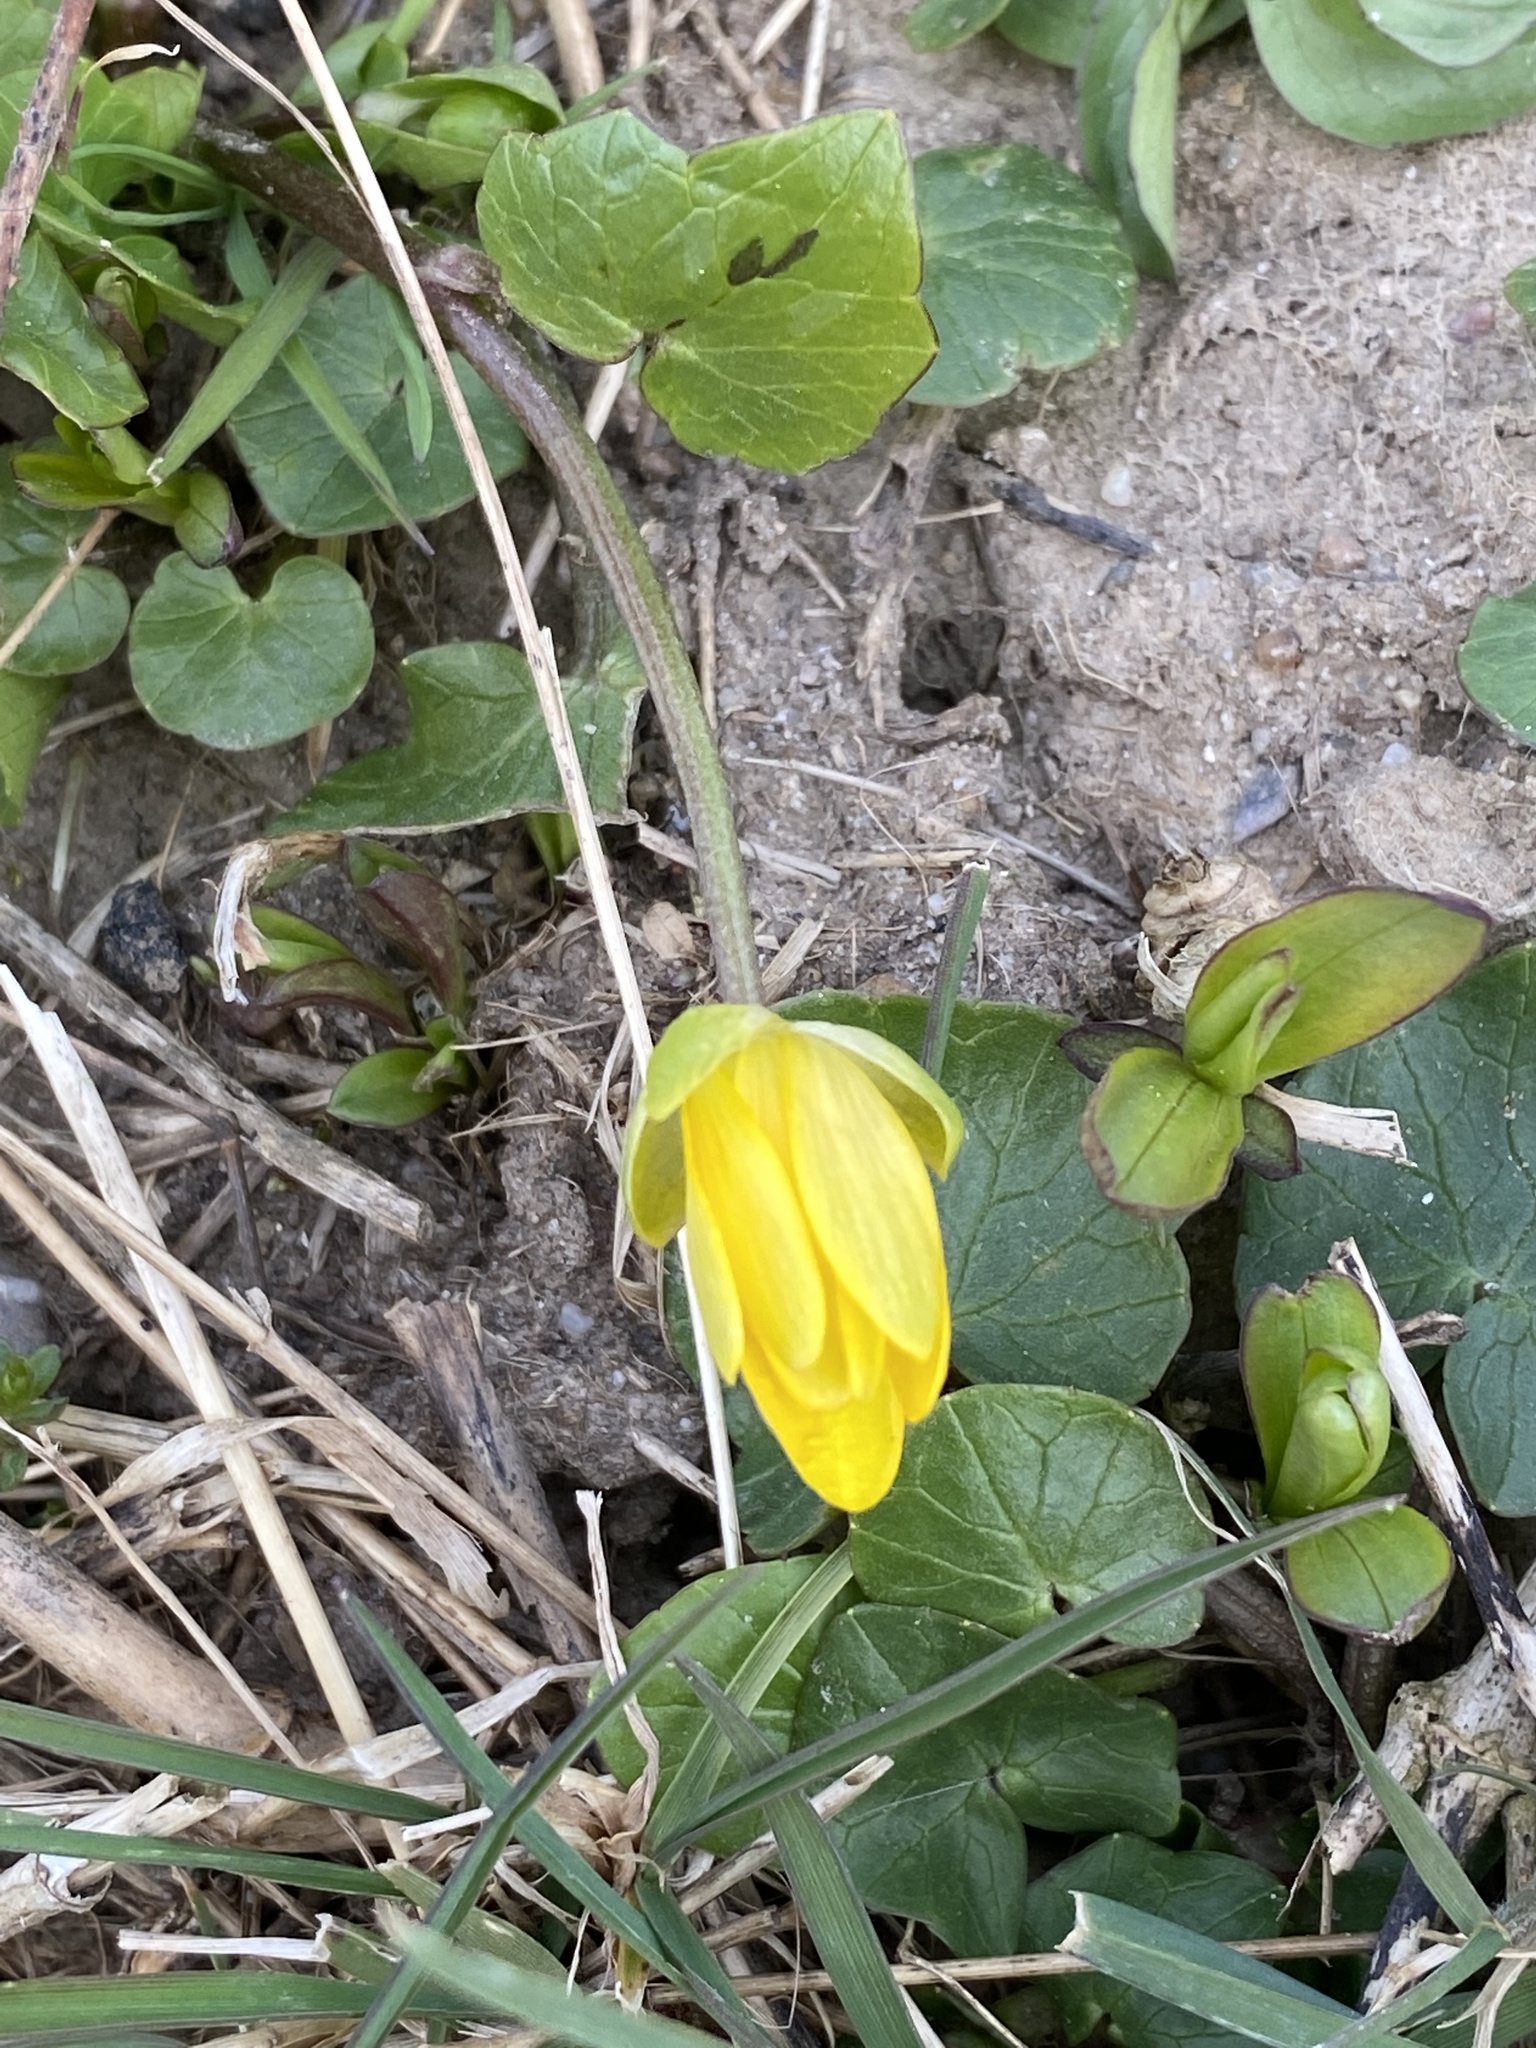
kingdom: Plantae
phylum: Tracheophyta
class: Magnoliopsida
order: Ranunculales
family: Ranunculaceae
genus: Ficaria
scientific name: Ficaria verna
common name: Lesser celandine
